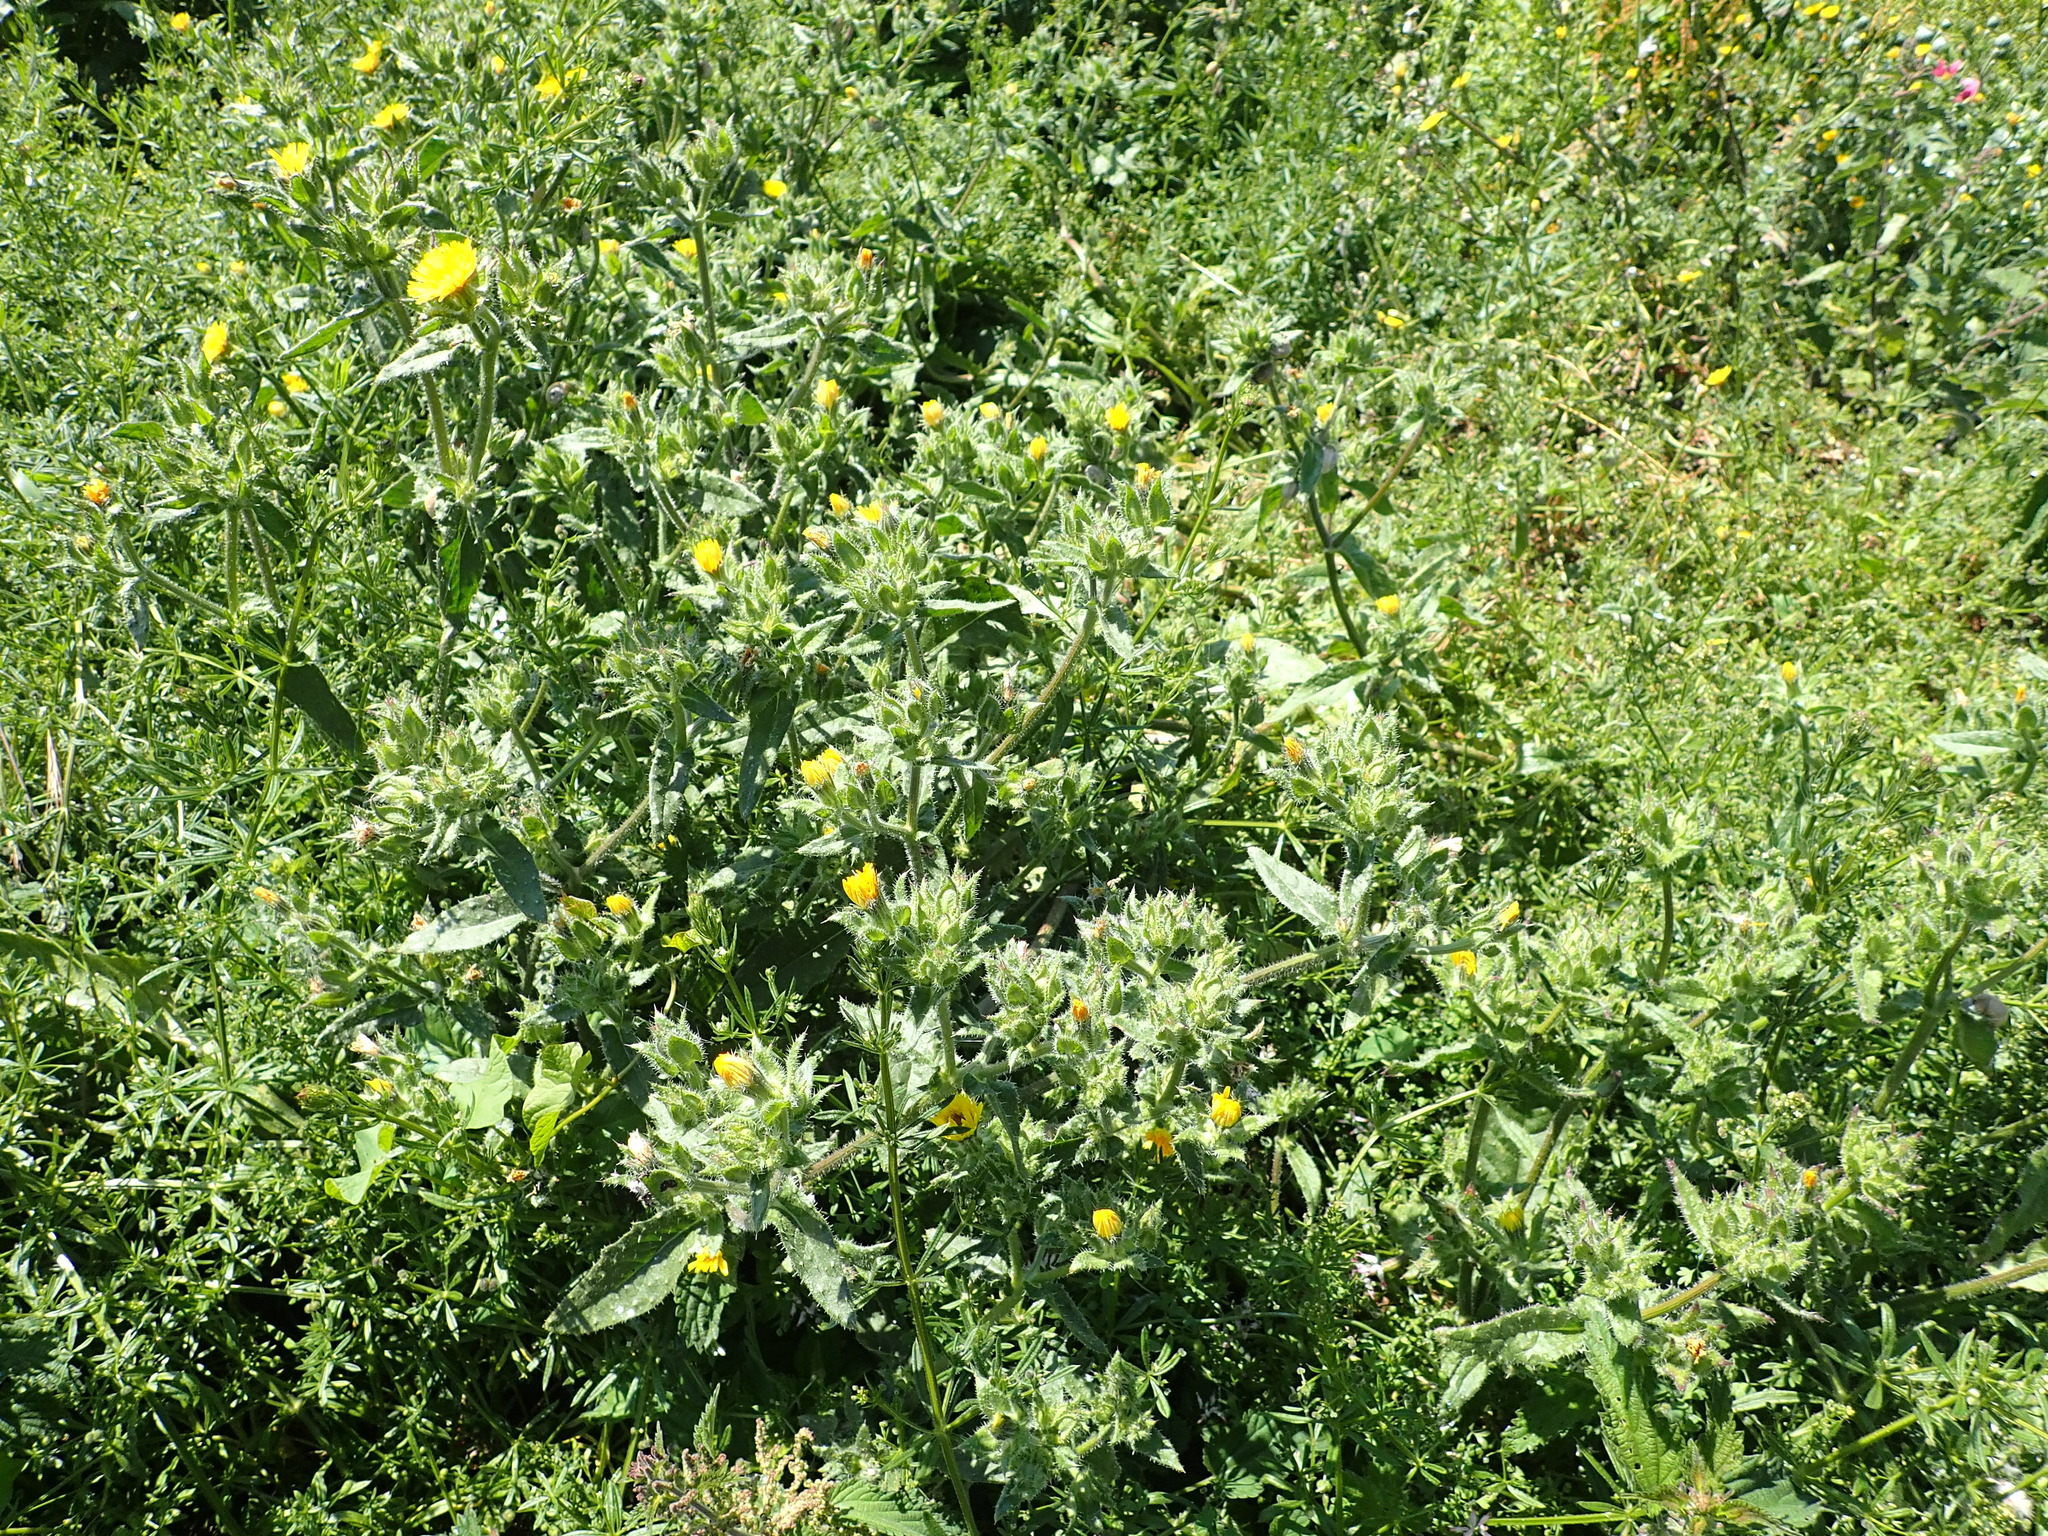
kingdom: Plantae
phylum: Tracheophyta
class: Magnoliopsida
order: Asterales
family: Asteraceae
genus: Helminthotheca
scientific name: Helminthotheca echioides
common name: Ox-tongue
